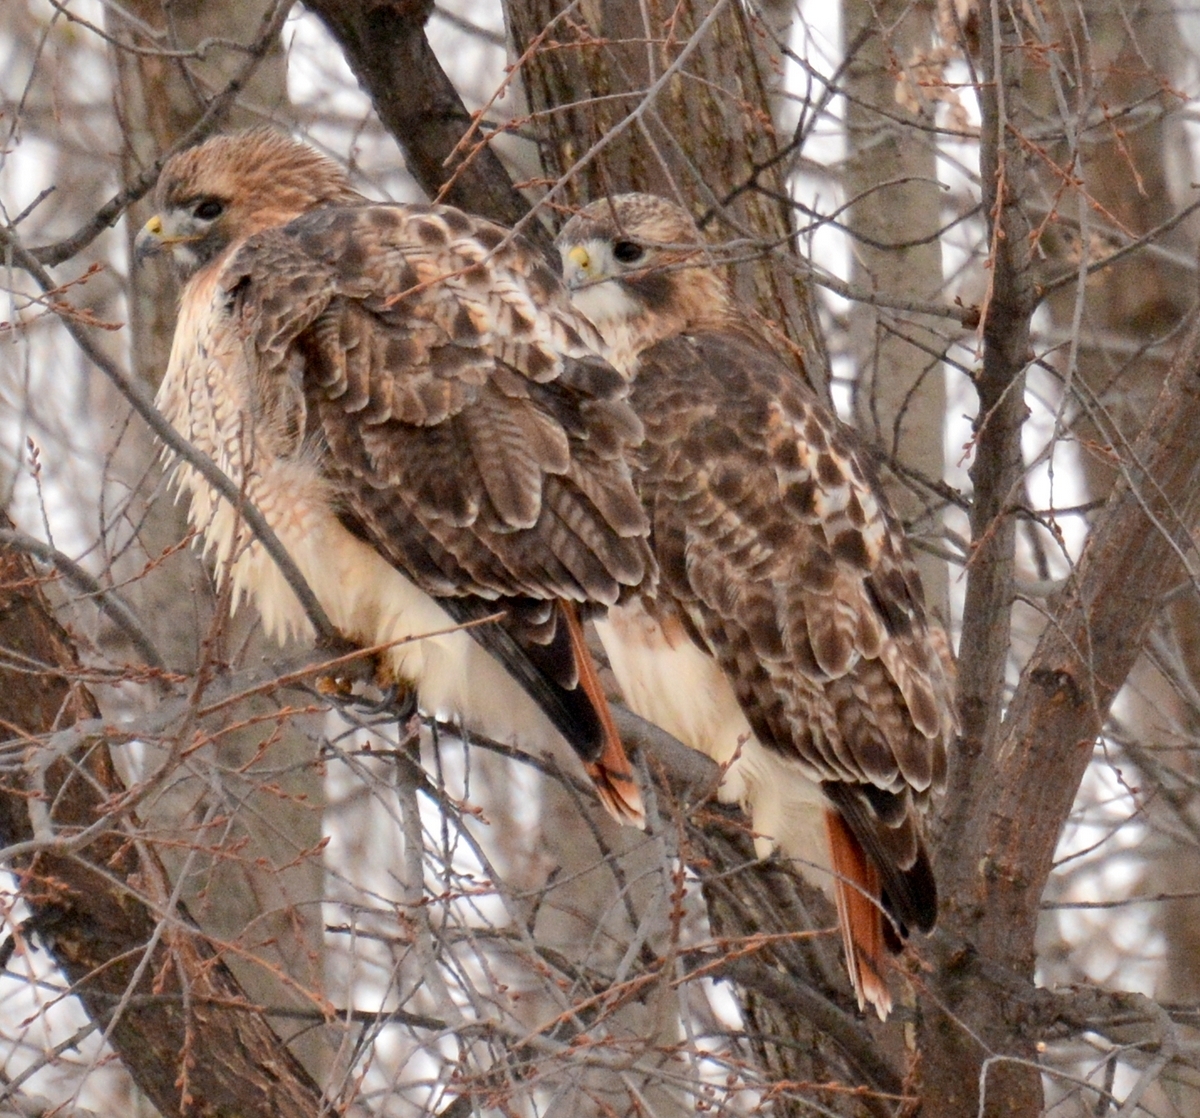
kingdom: Animalia
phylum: Chordata
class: Aves
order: Accipitriformes
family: Accipitridae
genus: Buteo
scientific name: Buteo jamaicensis
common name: Red-tailed hawk
